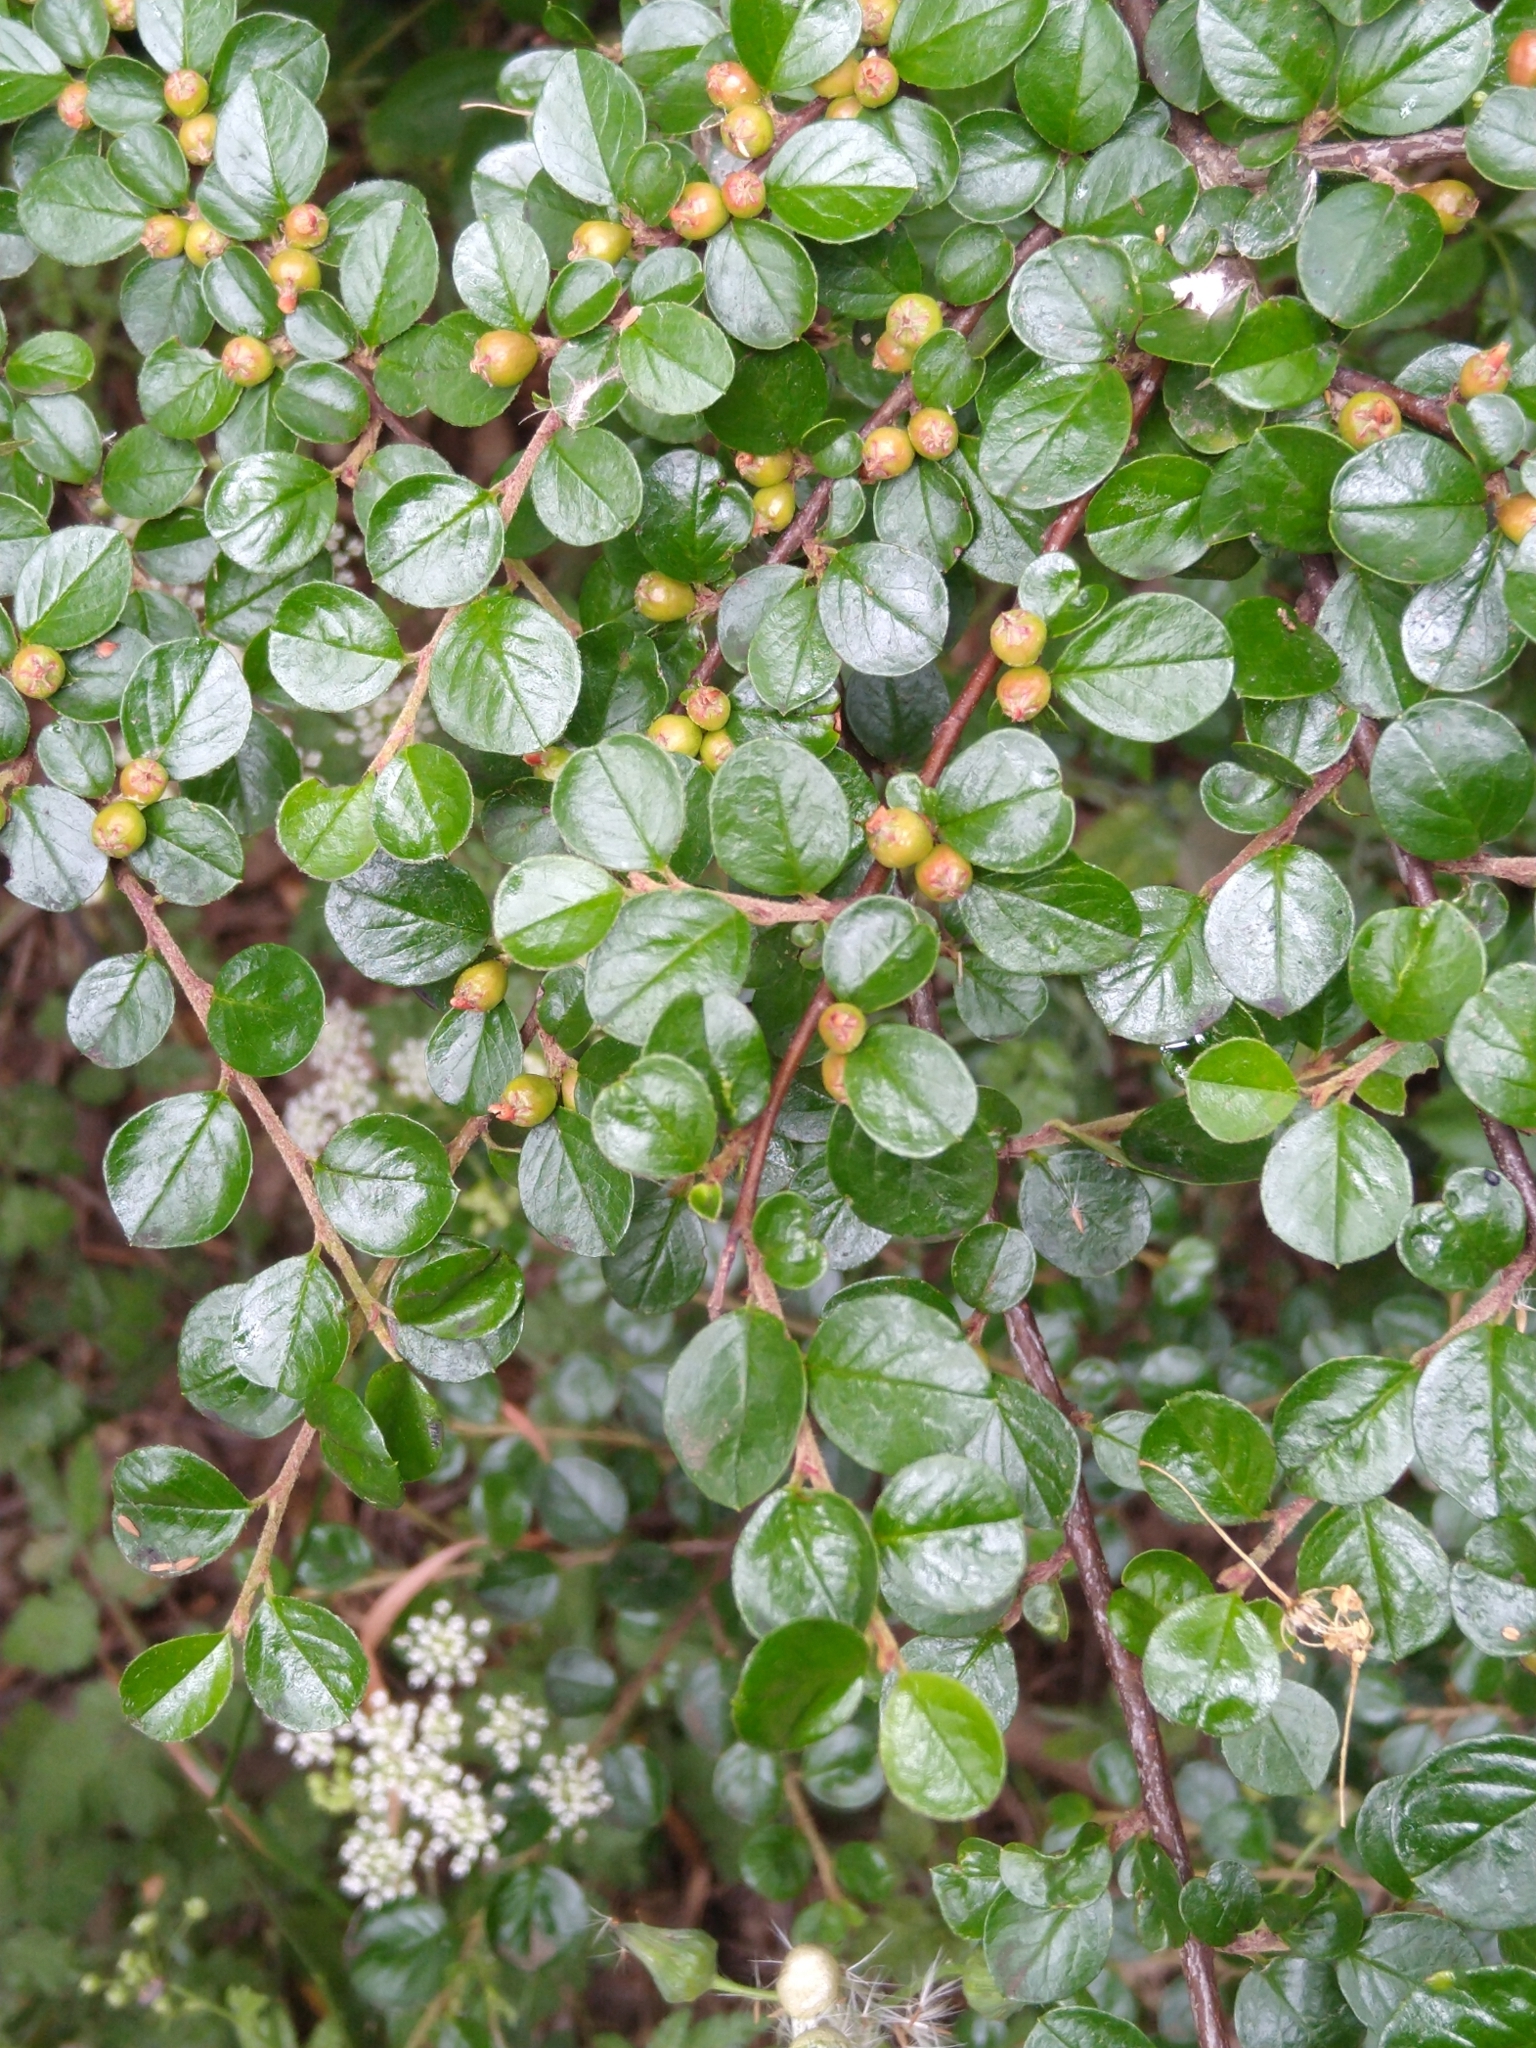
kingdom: Plantae
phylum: Tracheophyta
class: Magnoliopsida
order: Rosales
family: Rosaceae
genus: Cotoneaster
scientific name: Cotoneaster hjelmqvistii
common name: Hjelmqvist's cotoneaster
